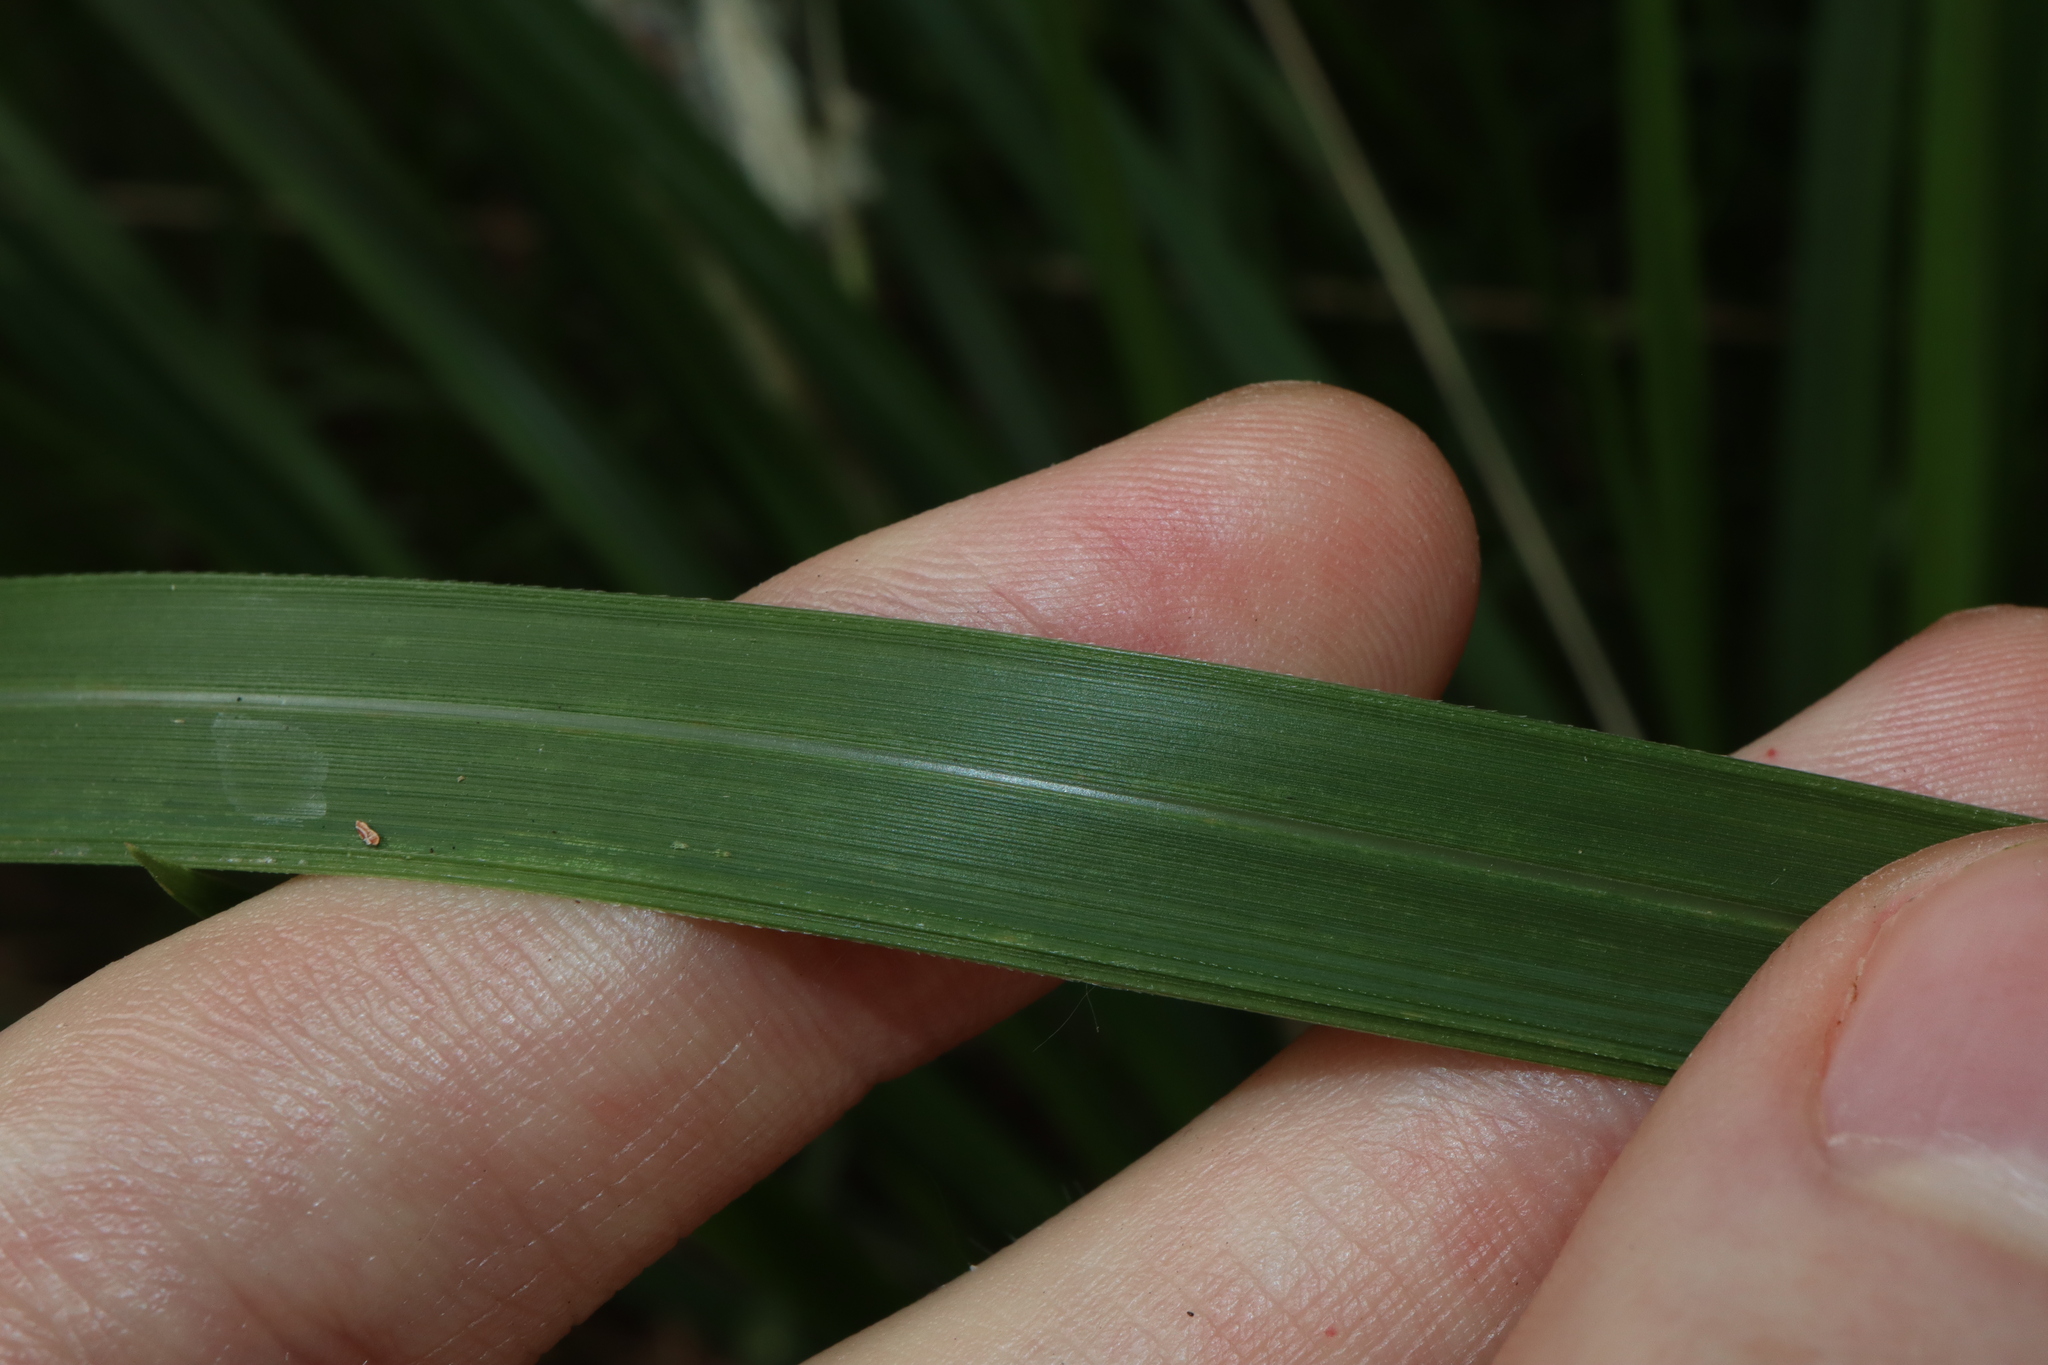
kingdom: Plantae
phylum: Tracheophyta
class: Liliopsida
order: Poales
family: Poaceae
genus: Imperata
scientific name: Imperata cylindrica
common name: Cogongrass
